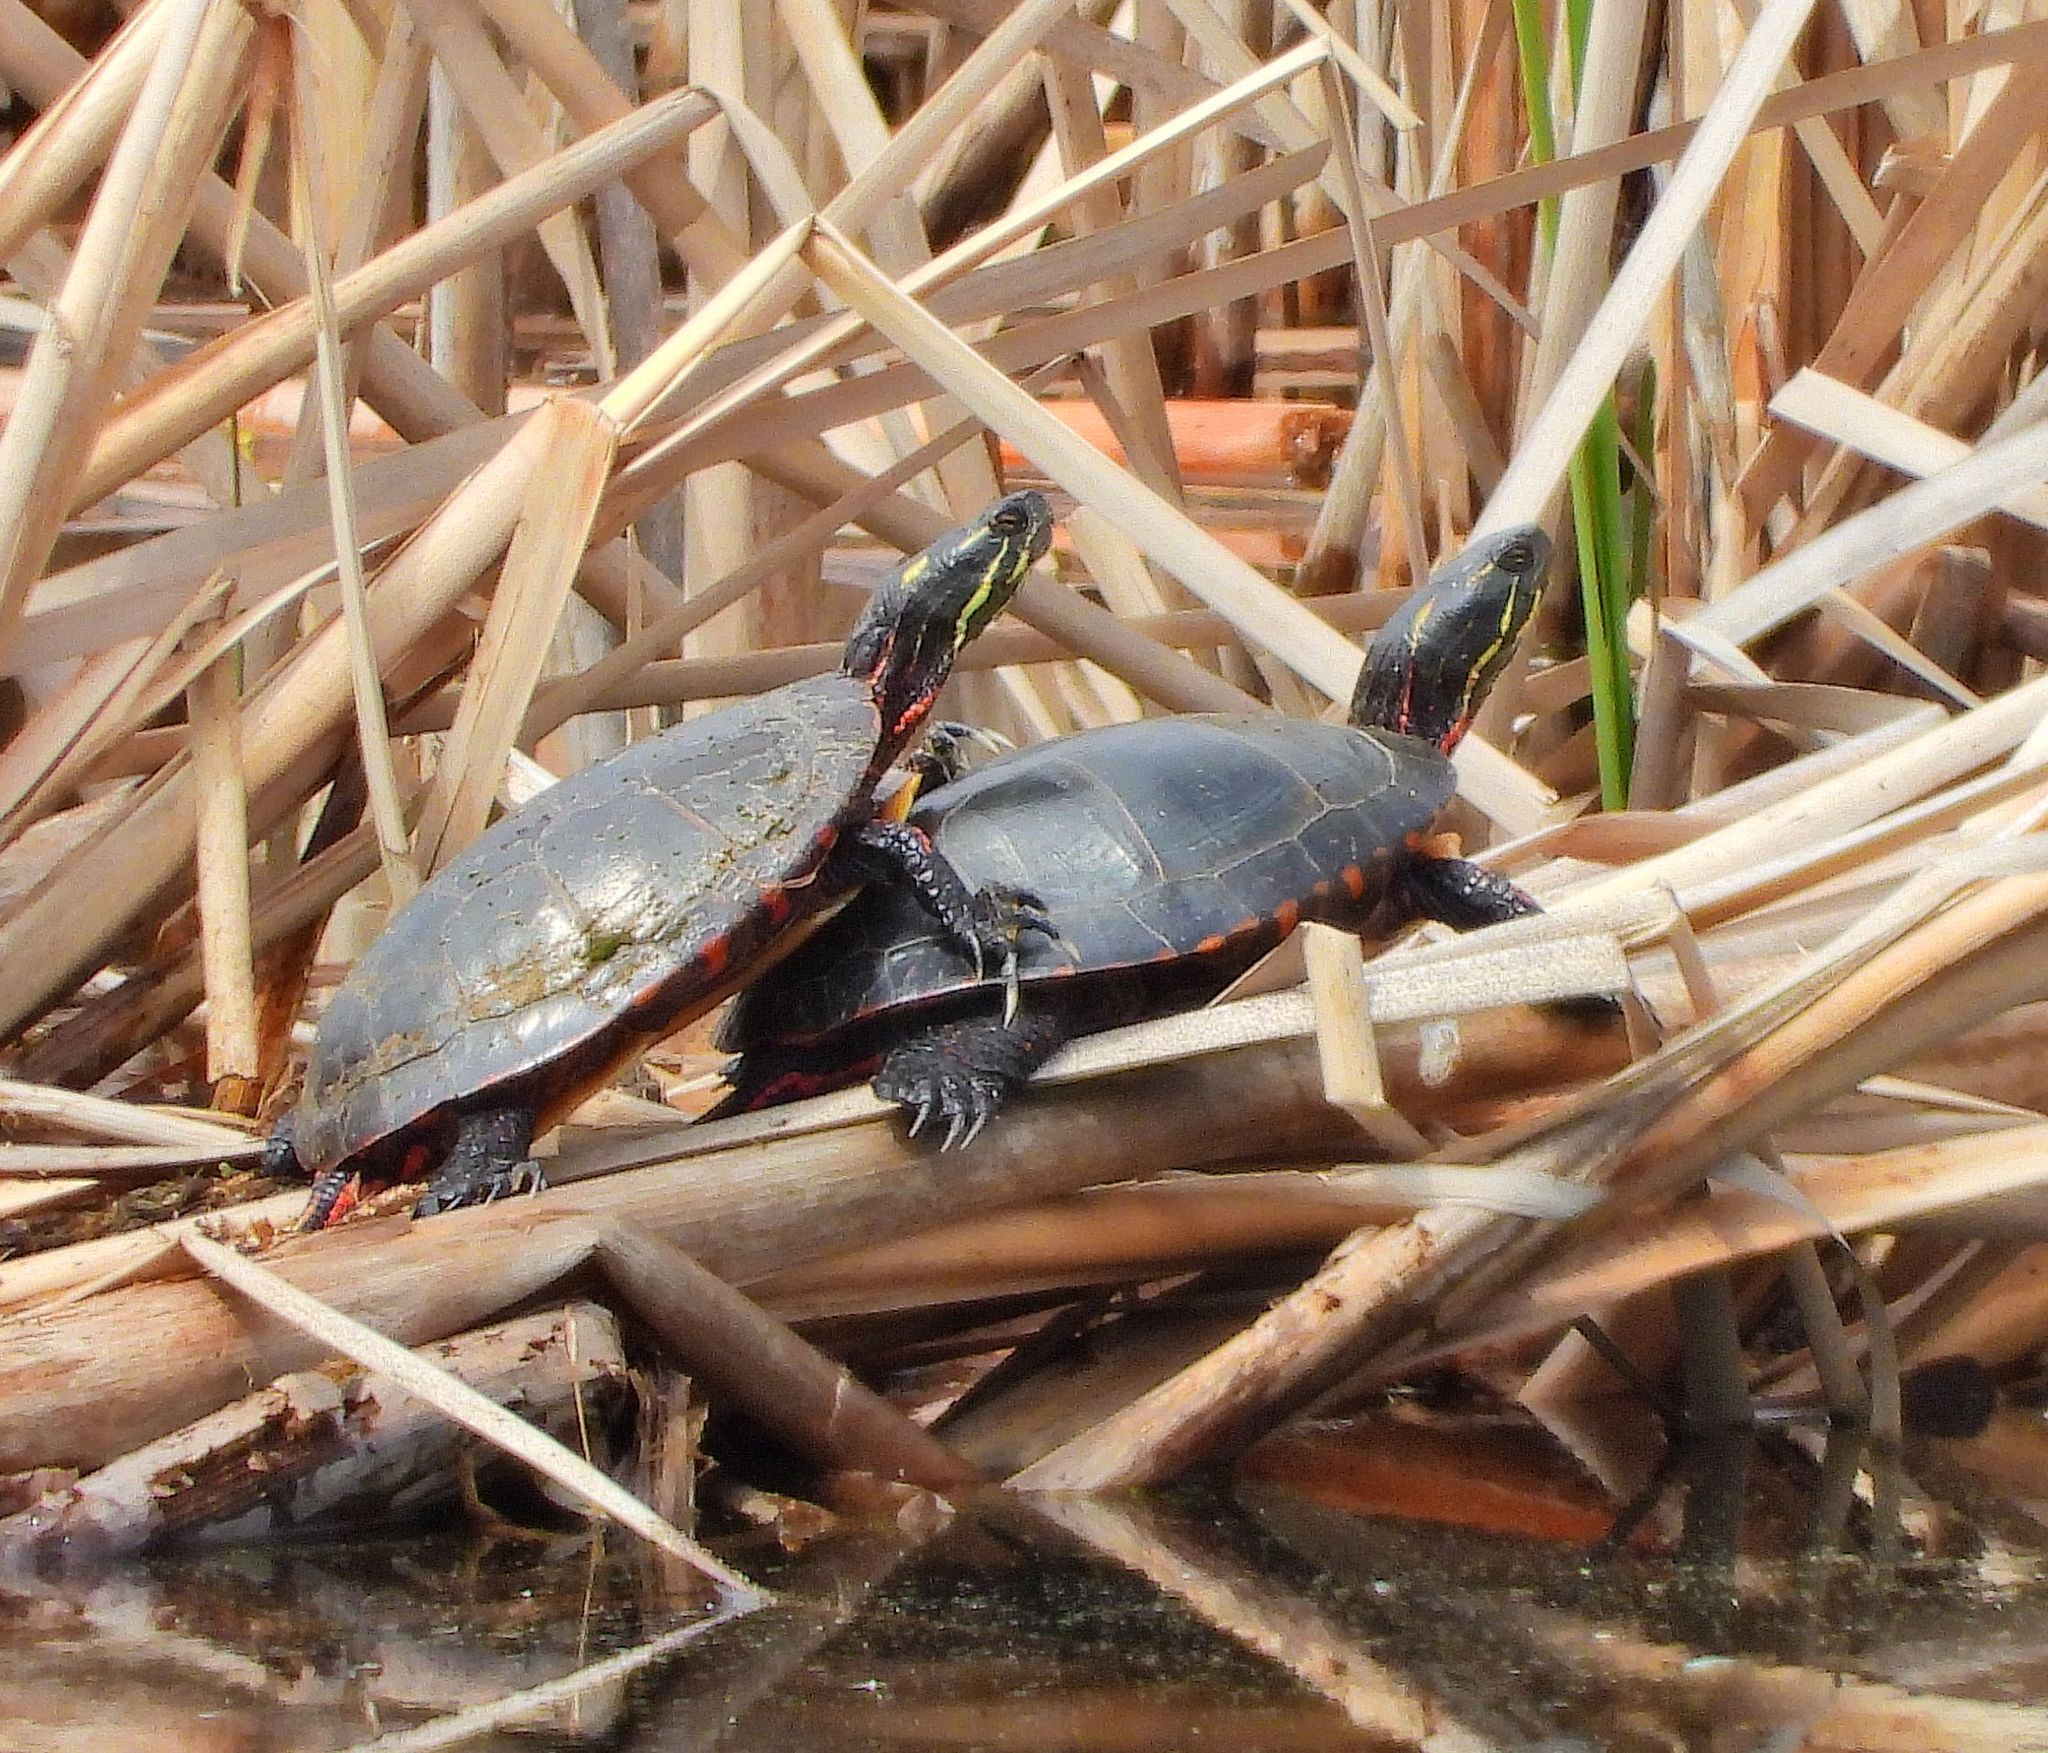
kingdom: Animalia
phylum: Chordata
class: Testudines
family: Emydidae
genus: Chrysemys
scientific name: Chrysemys picta
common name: Painted turtle
